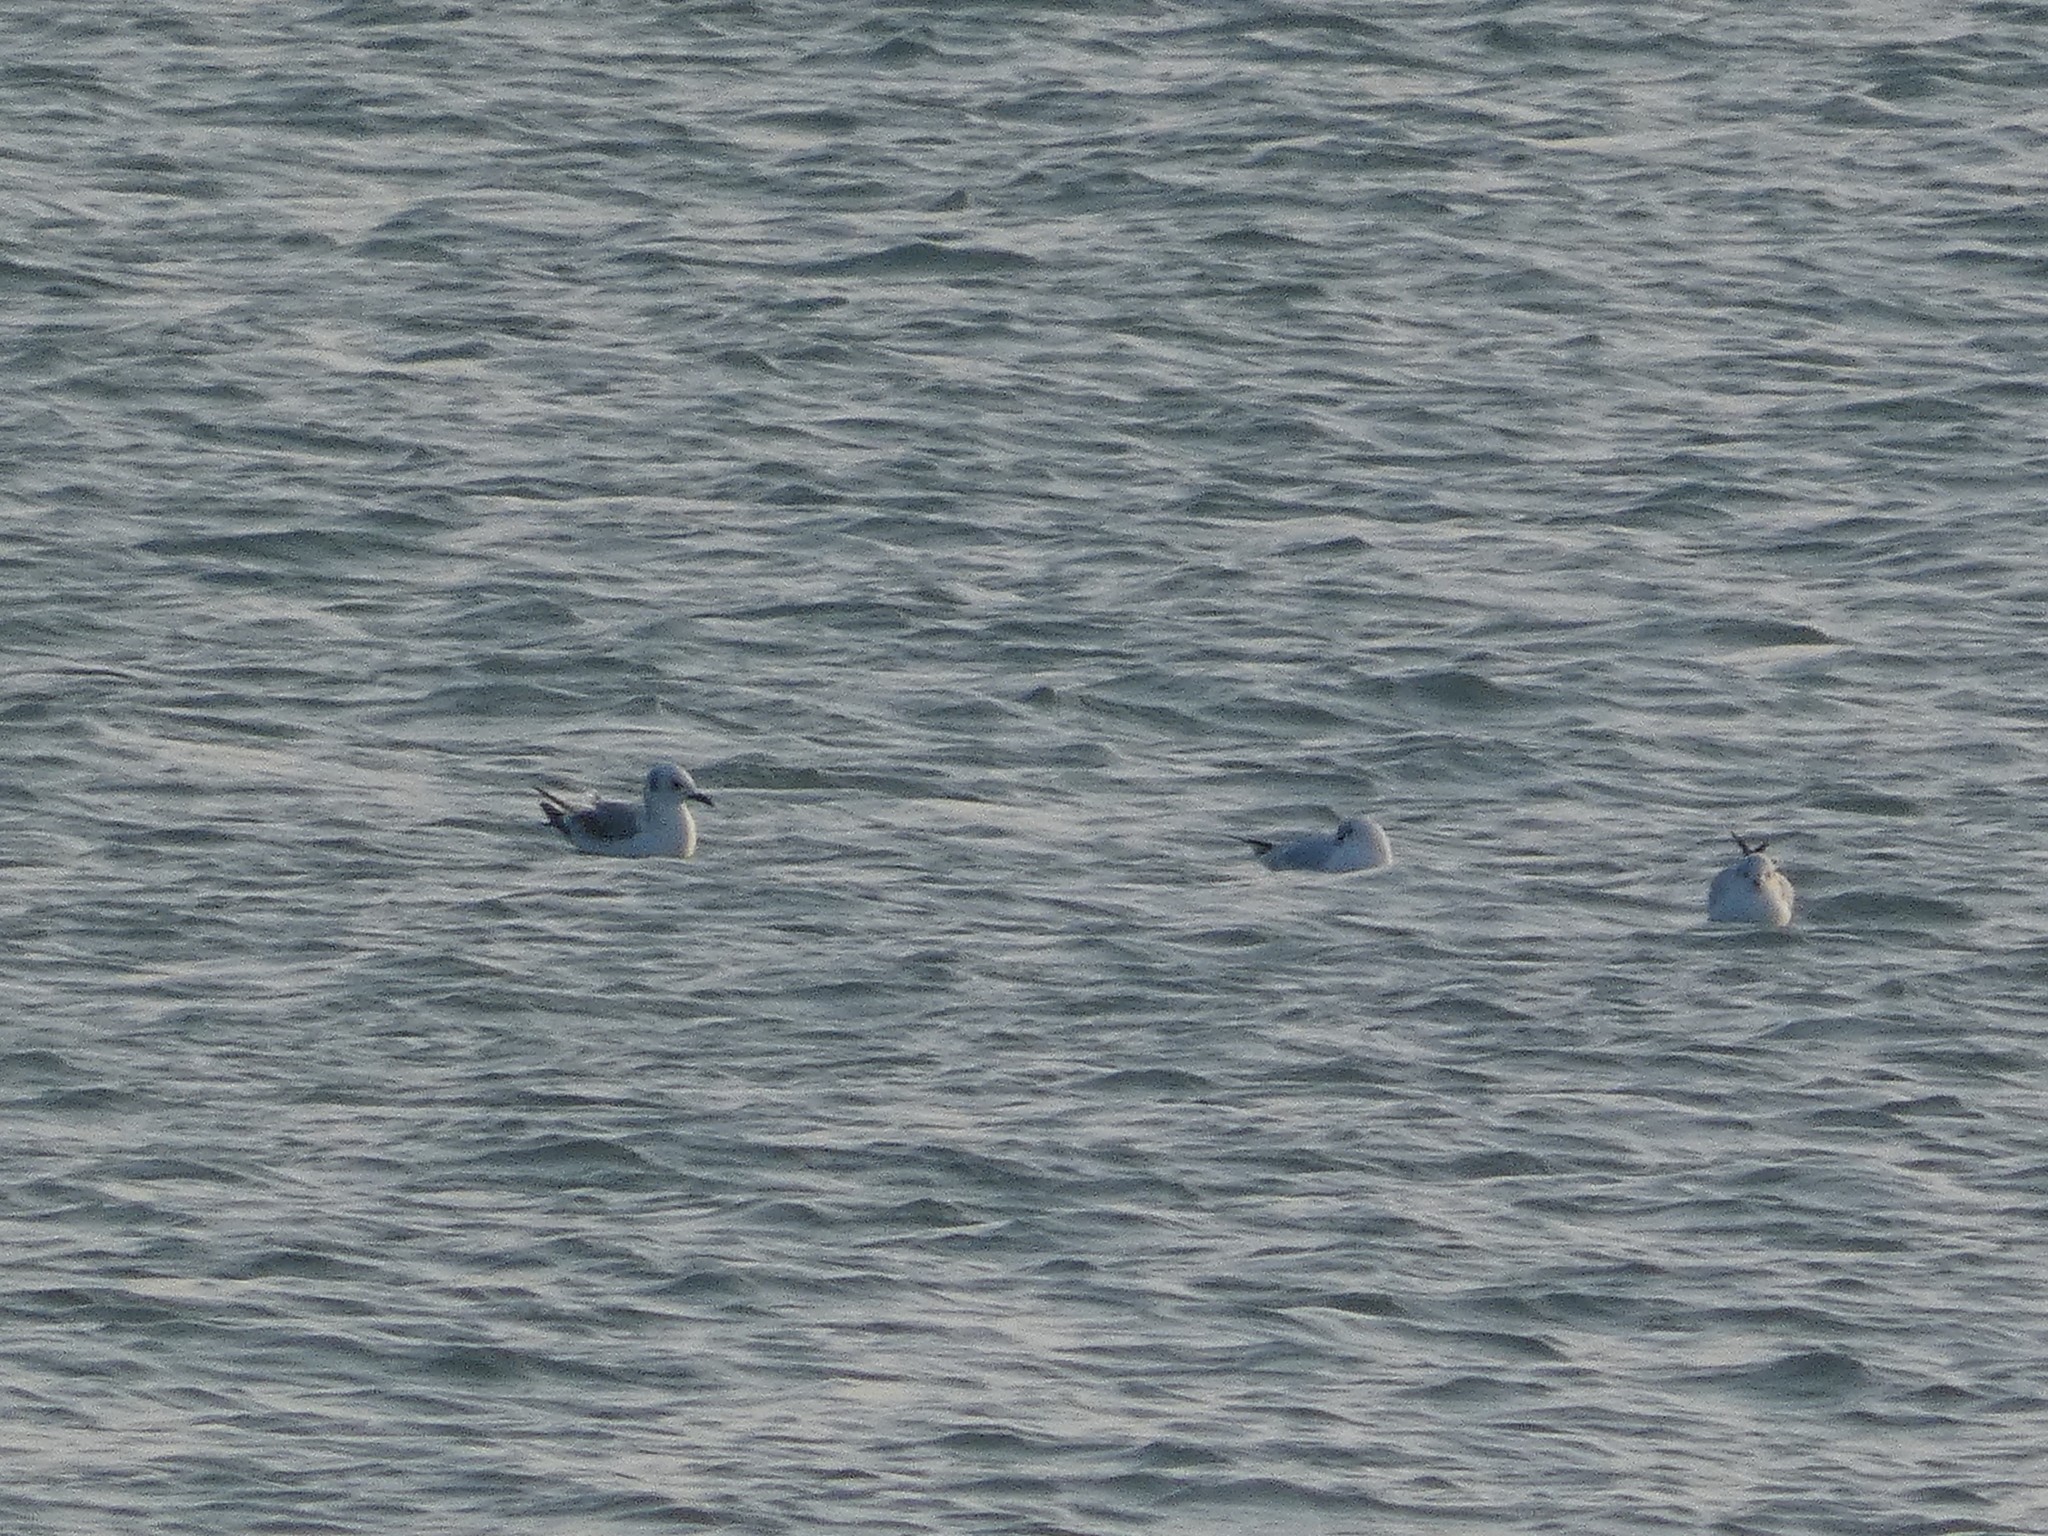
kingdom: Animalia
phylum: Chordata
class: Aves
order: Charadriiformes
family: Laridae
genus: Chroicocephalus
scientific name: Chroicocephalus philadelphia
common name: Bonaparte's gull
